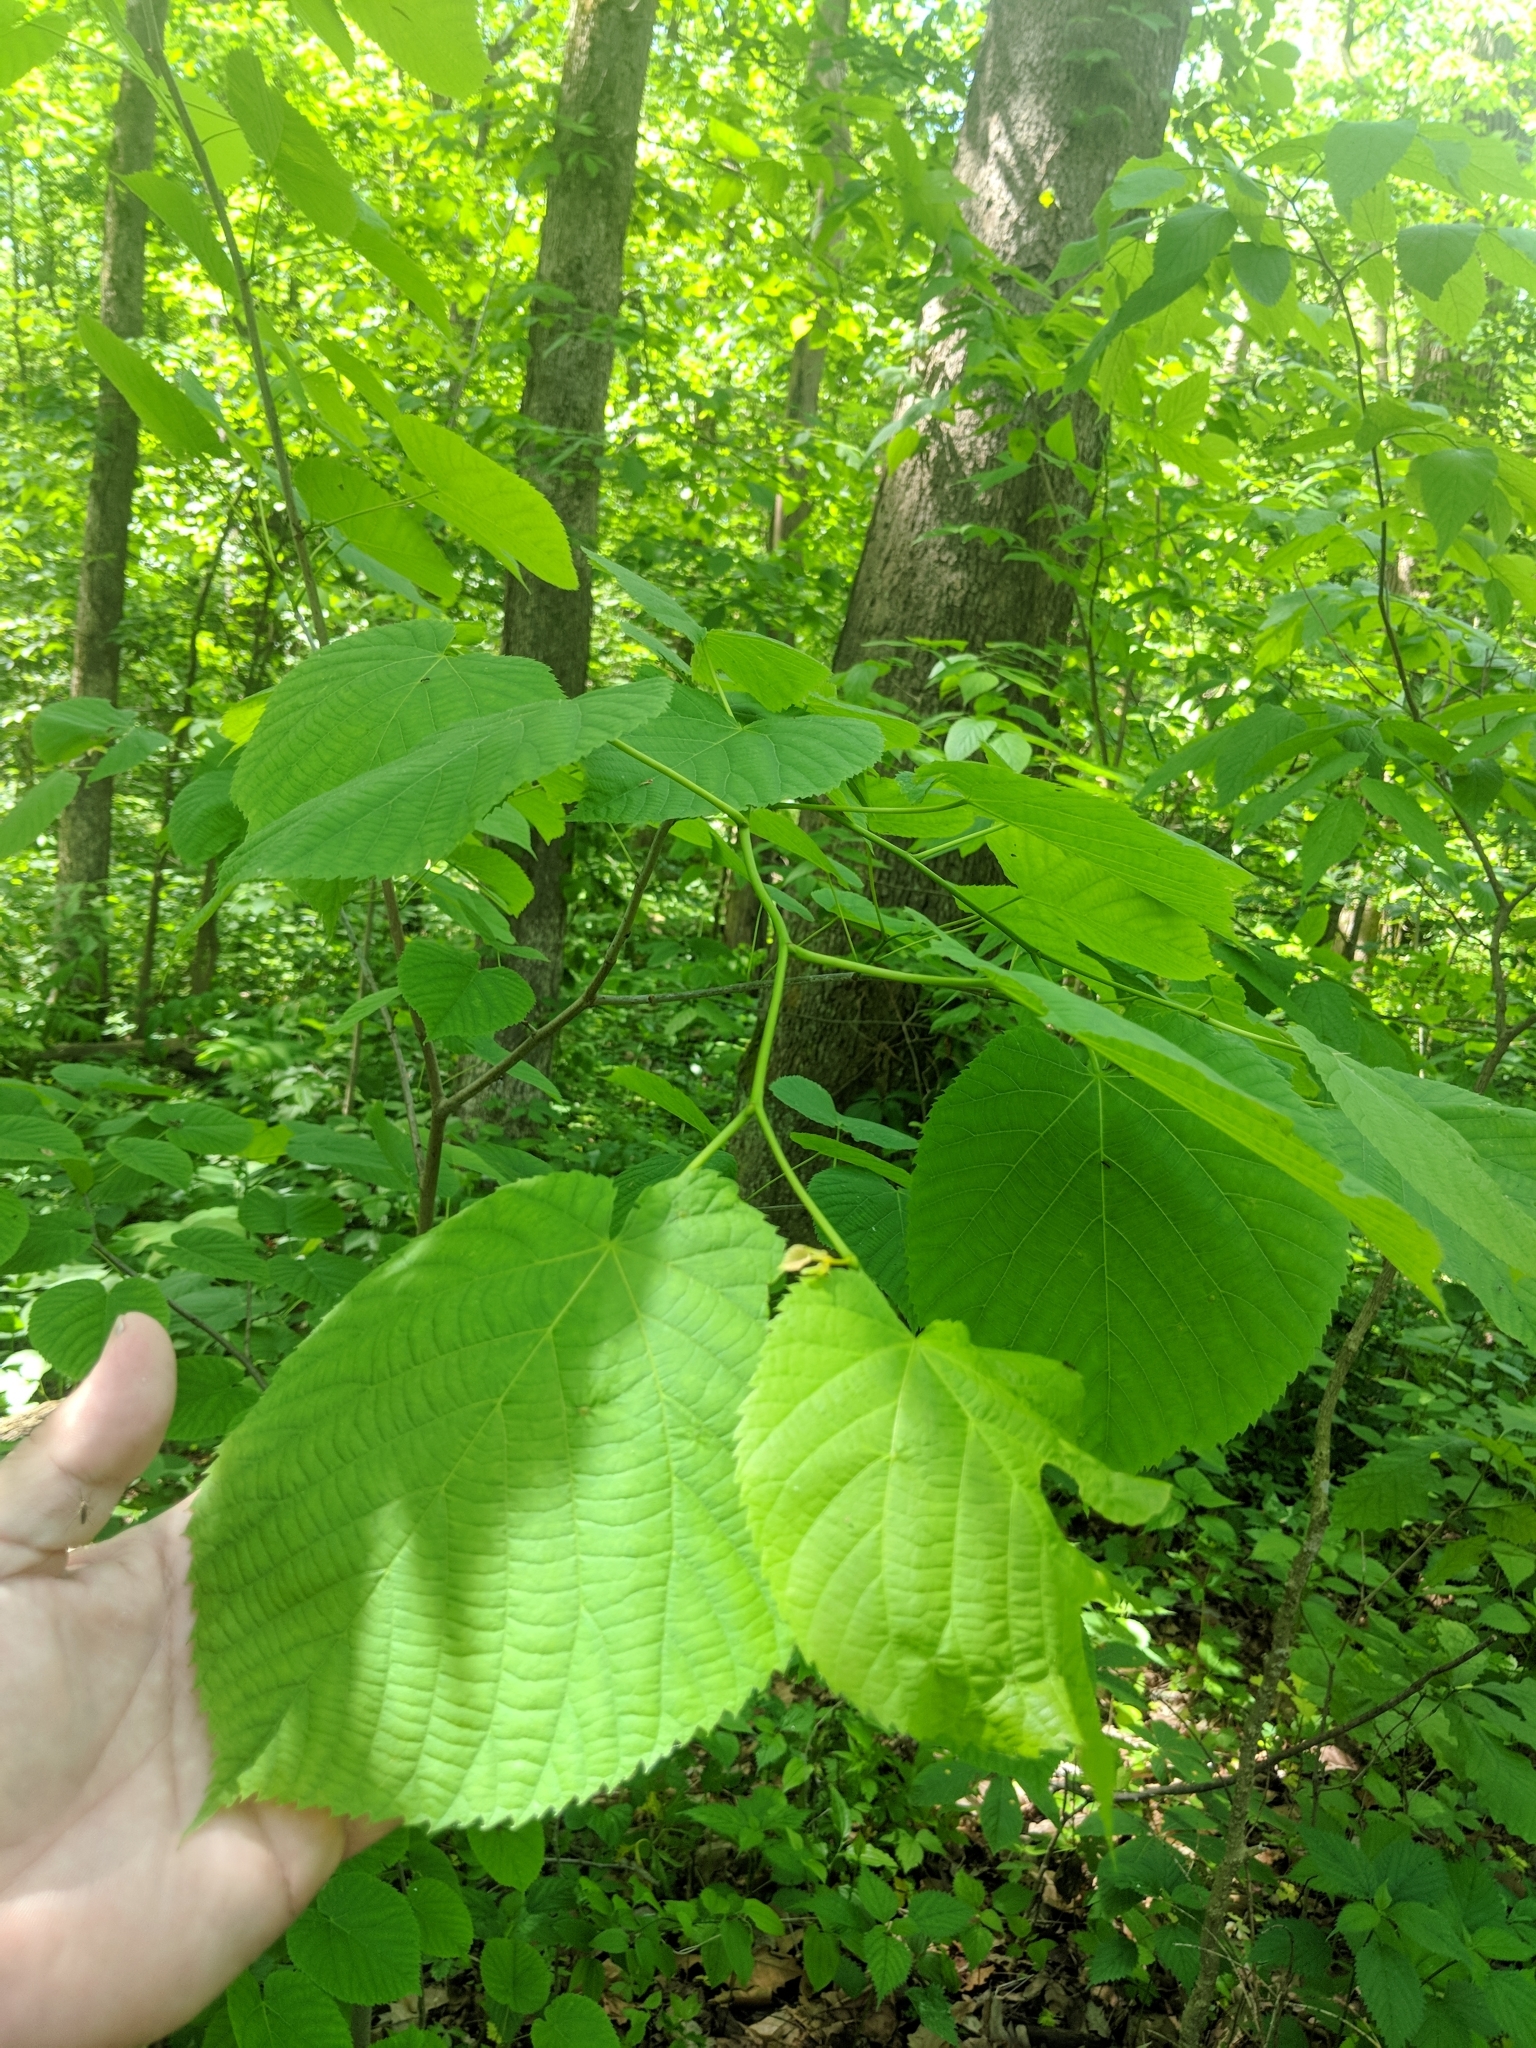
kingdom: Plantae
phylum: Tracheophyta
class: Magnoliopsida
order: Malvales
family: Malvaceae
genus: Tilia
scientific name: Tilia americana
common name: Basswood
